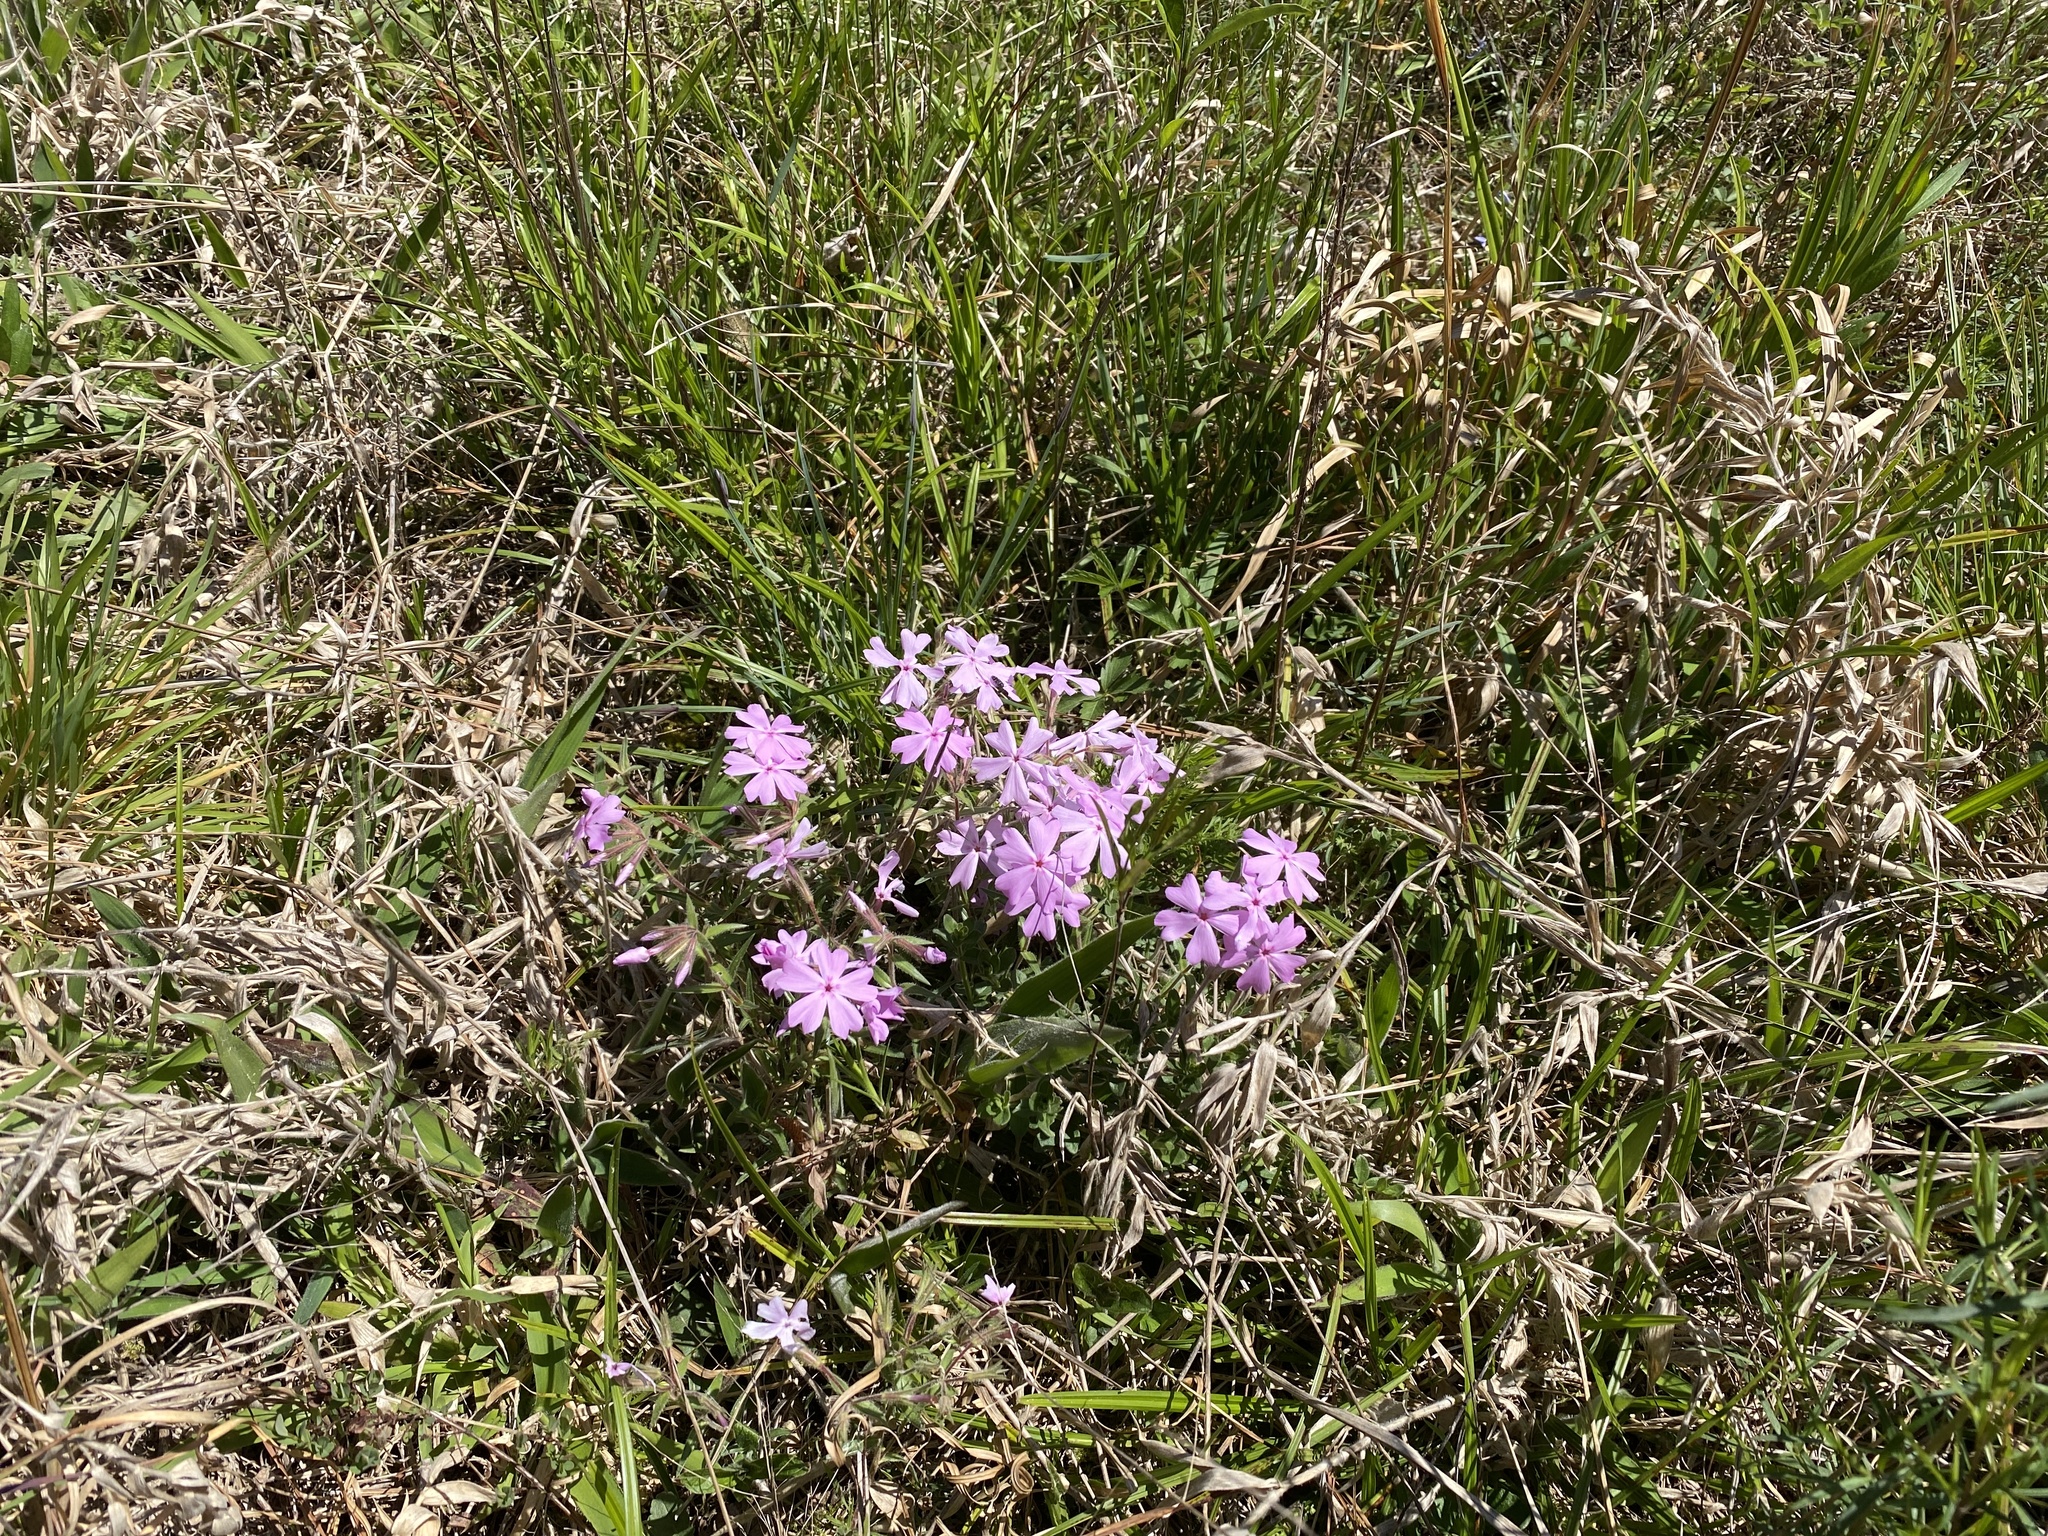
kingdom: Plantae
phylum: Tracheophyta
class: Magnoliopsida
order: Ericales
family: Polemoniaceae
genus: Phlox
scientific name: Phlox nivalis
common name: Trailing phlox
